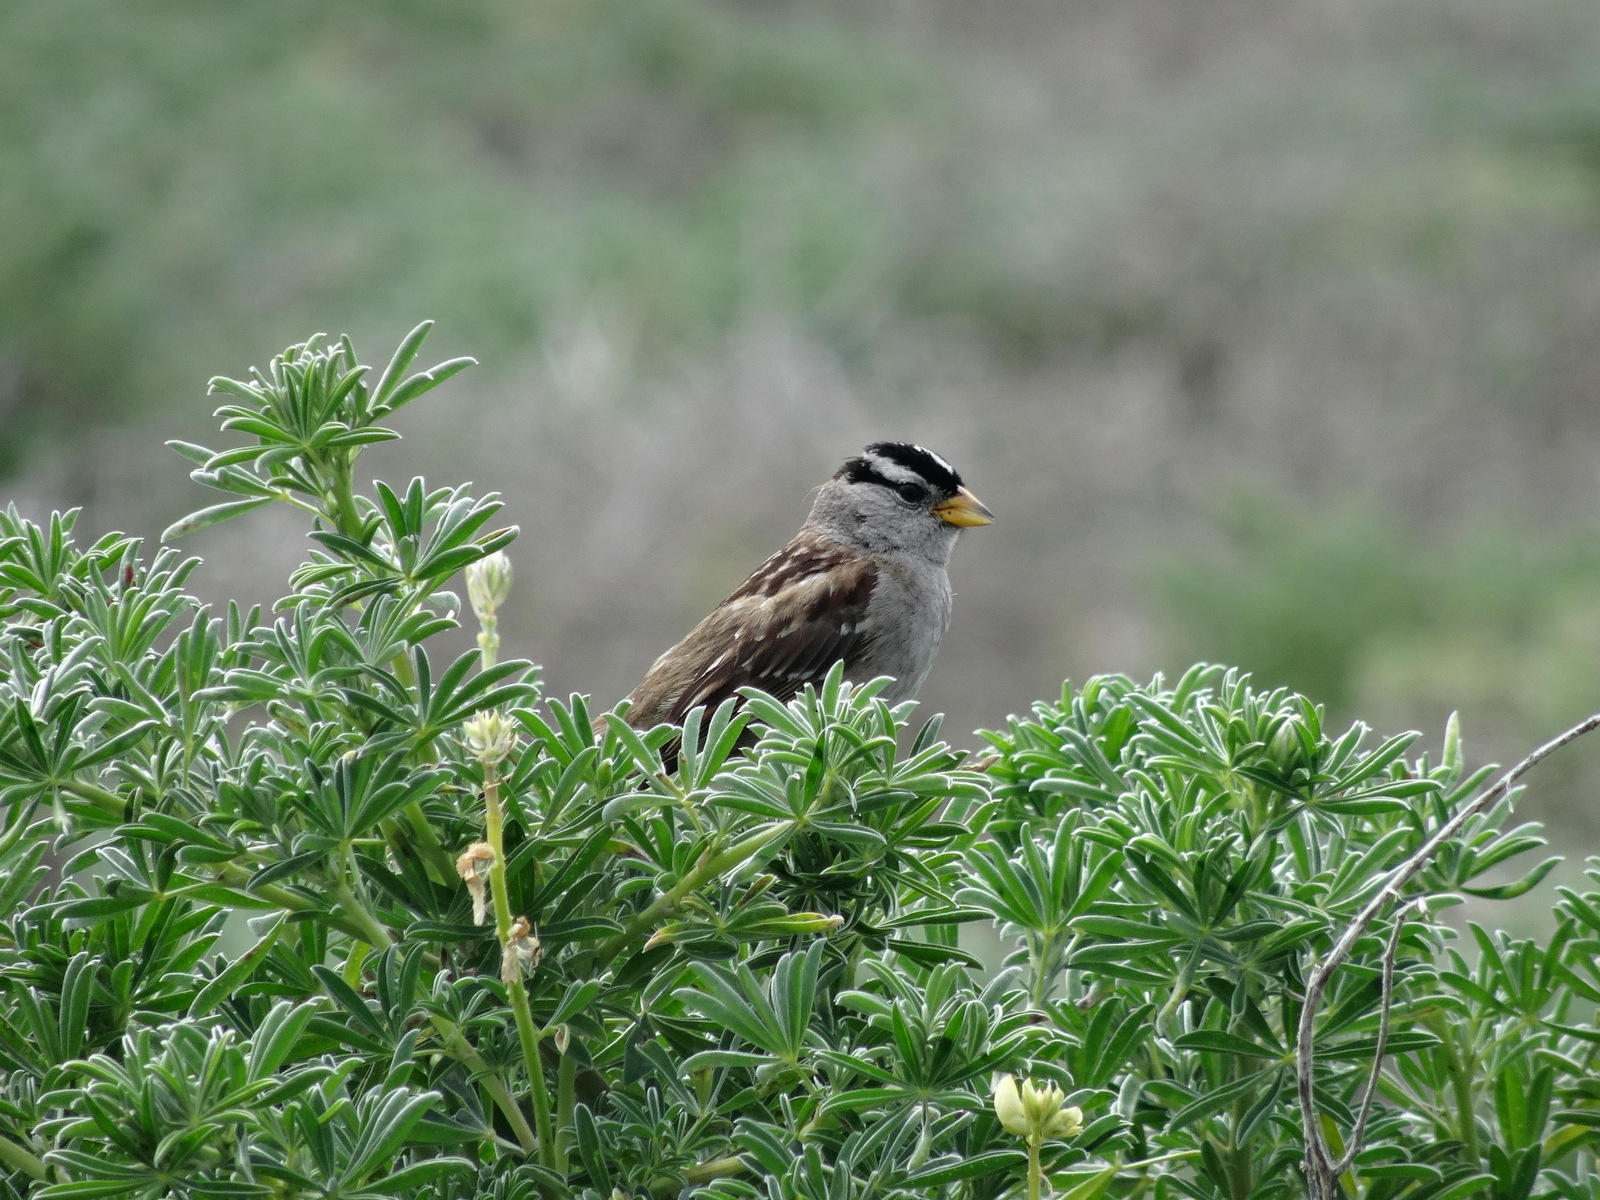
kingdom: Animalia
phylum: Chordata
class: Aves
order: Passeriformes
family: Passerellidae
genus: Zonotrichia
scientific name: Zonotrichia leucophrys
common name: White-crowned sparrow
